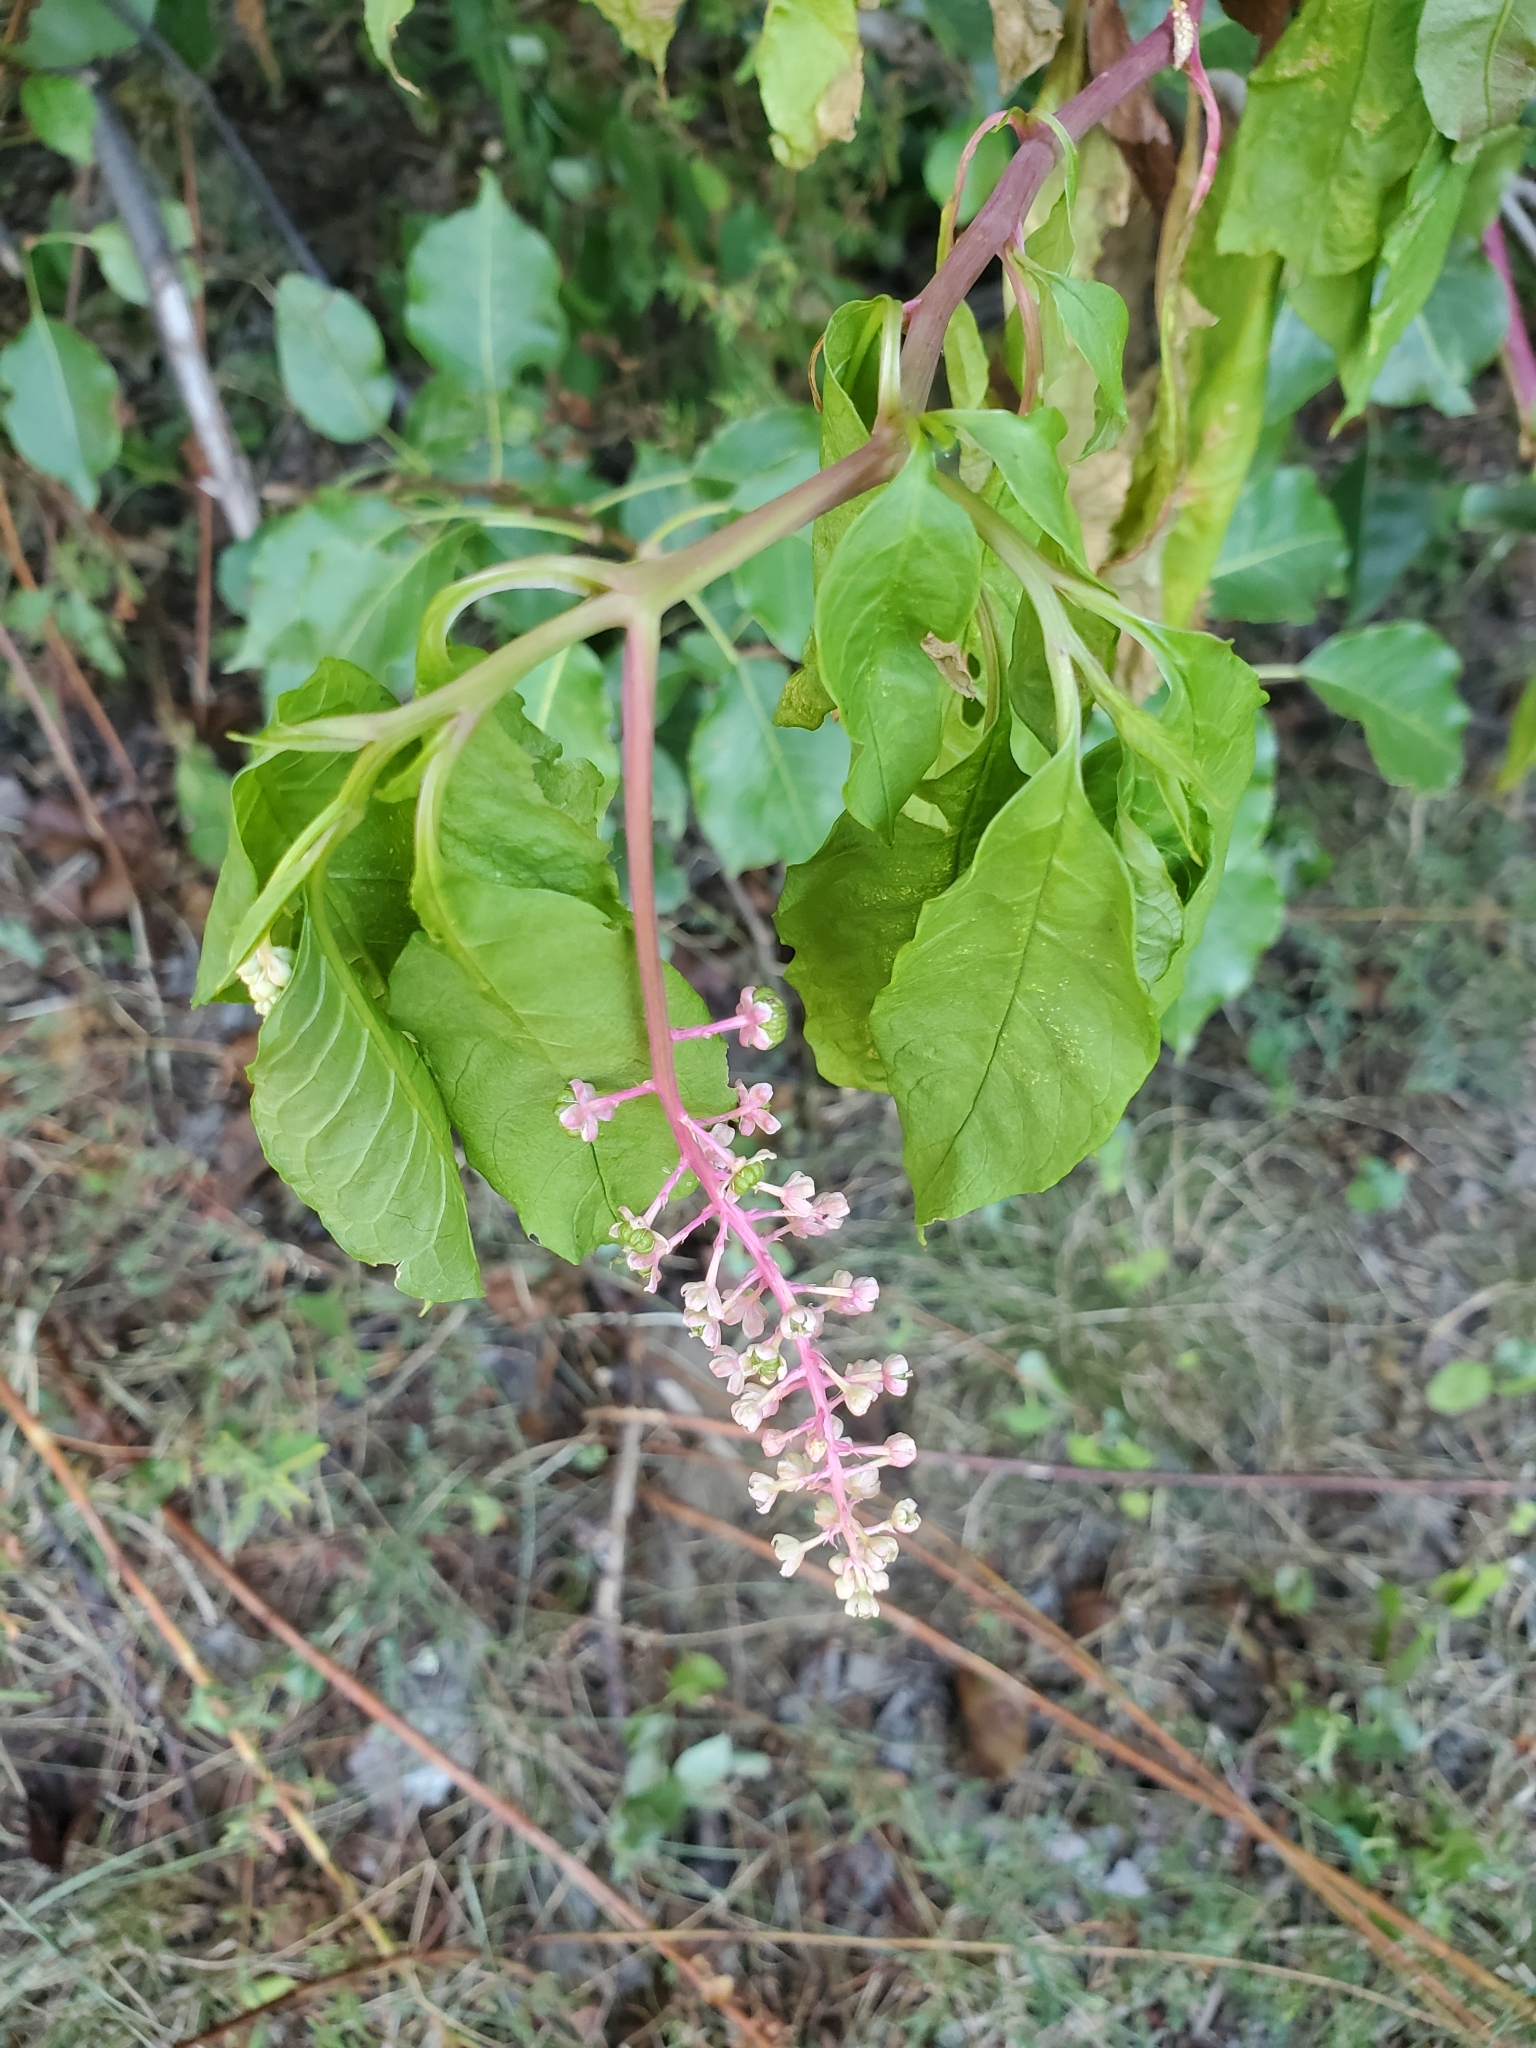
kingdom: Plantae
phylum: Tracheophyta
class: Magnoliopsida
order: Caryophyllales
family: Phytolaccaceae
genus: Phytolacca
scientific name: Phytolacca americana
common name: American pokeweed
